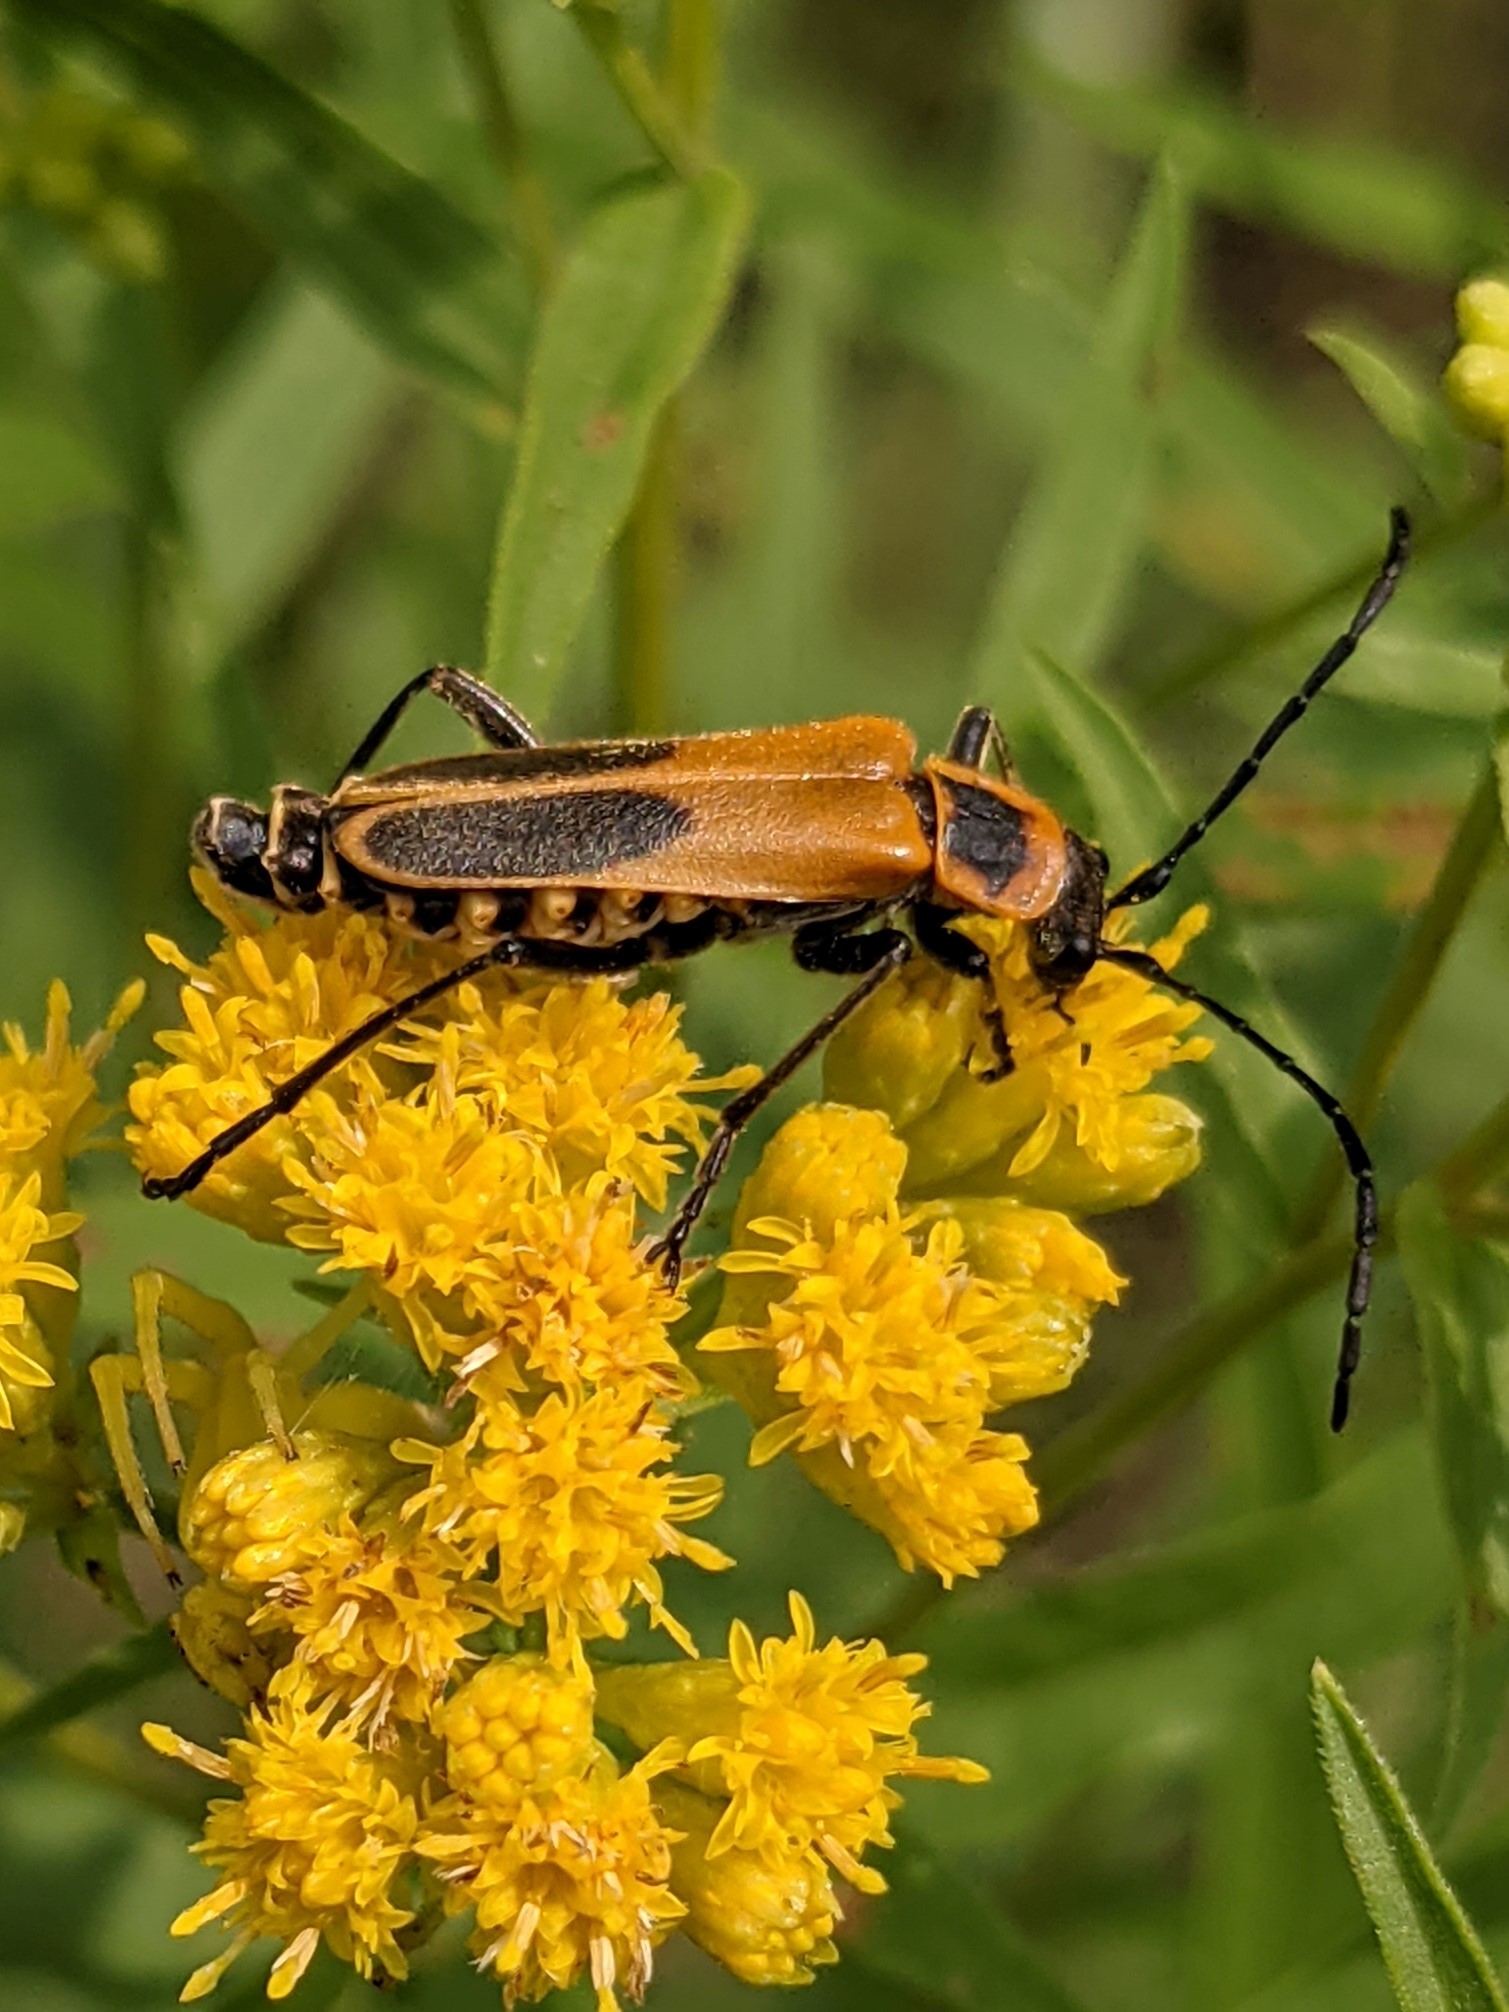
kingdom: Animalia
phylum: Arthropoda
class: Insecta
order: Coleoptera
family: Cantharidae
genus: Chauliognathus
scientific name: Chauliognathus pensylvanicus
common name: Goldenrod soldier beetle
